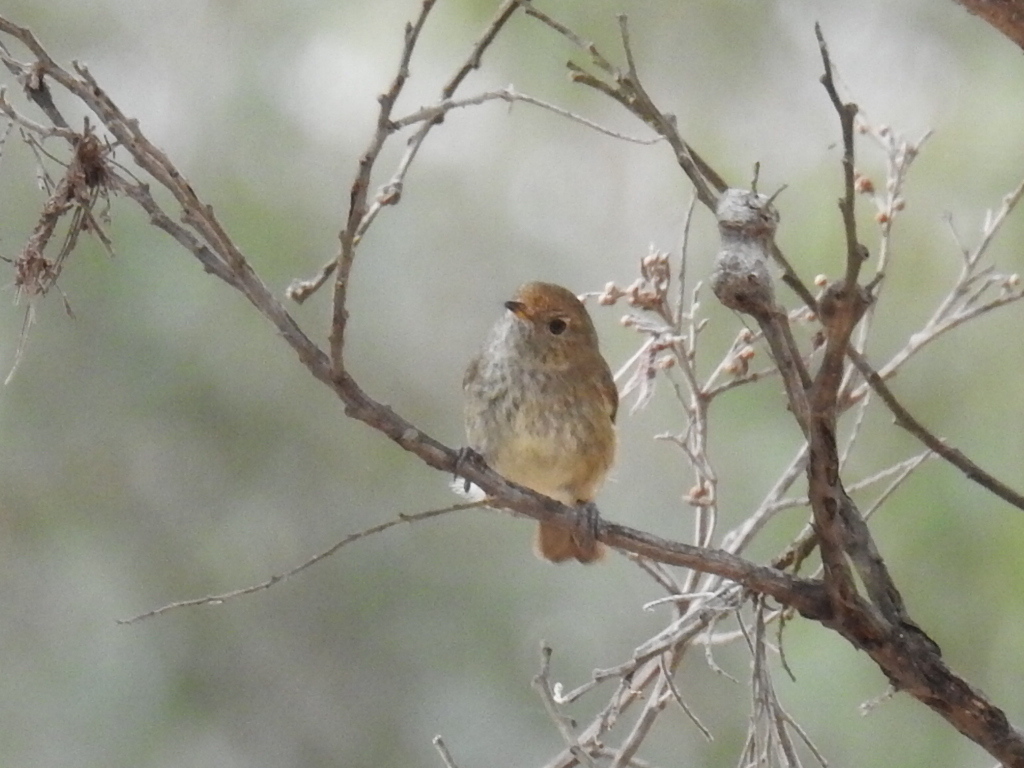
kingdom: Animalia
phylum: Chordata
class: Aves
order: Passeriformes
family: Acanthizidae
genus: Acanthiza
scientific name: Acanthiza pusilla
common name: Brown thornbill
